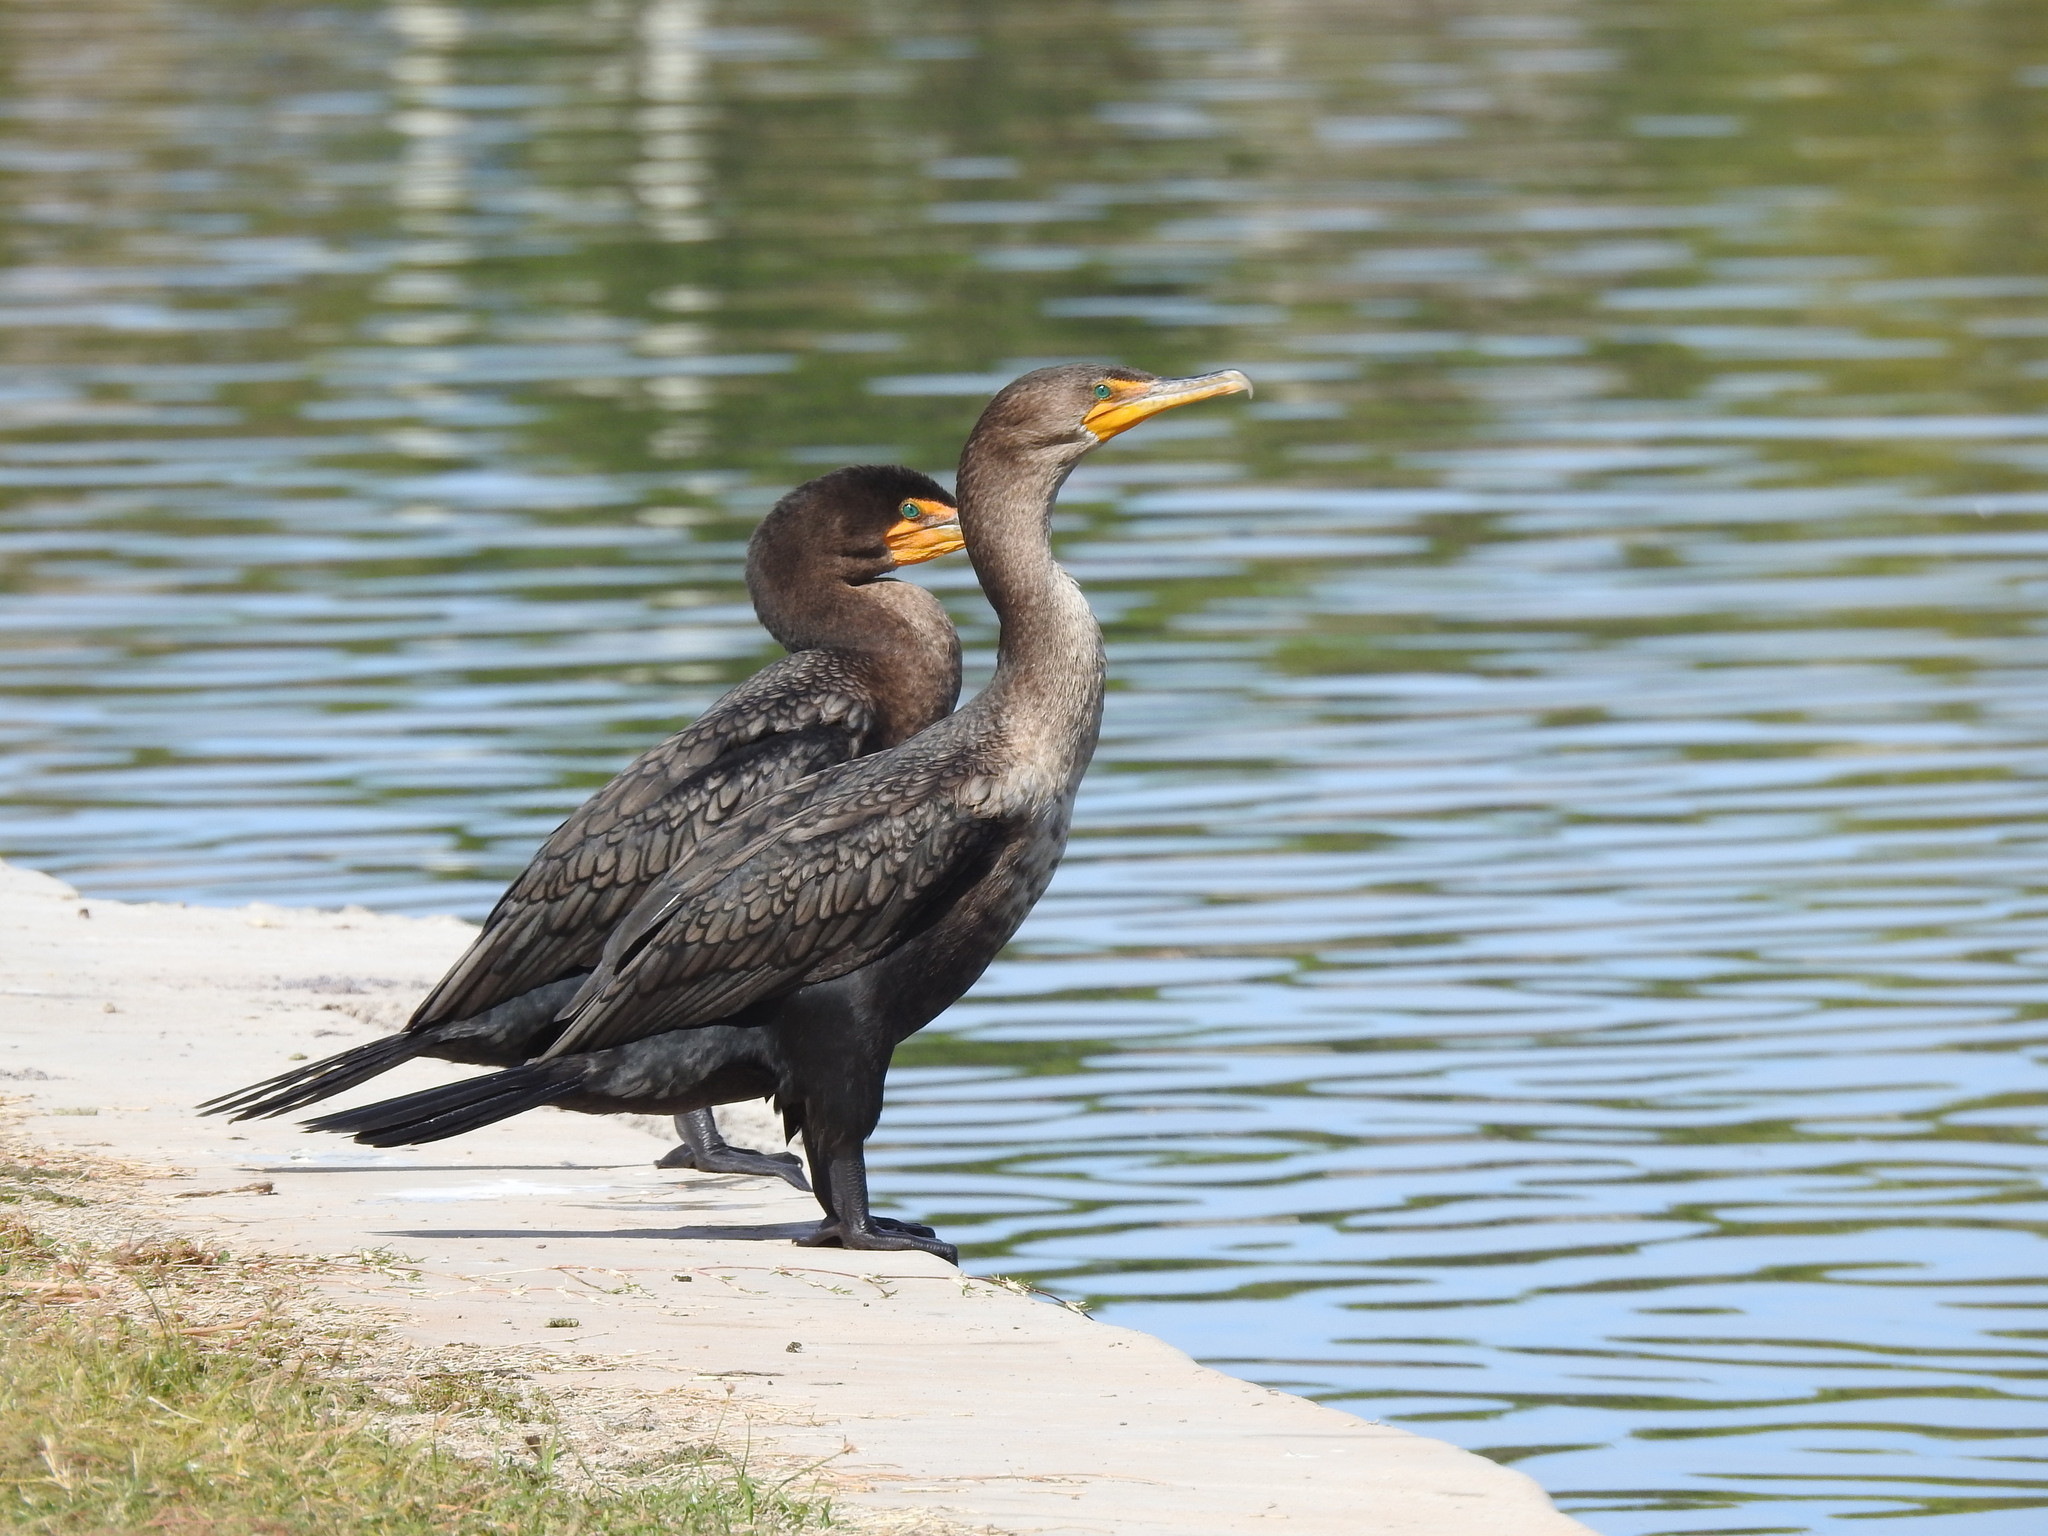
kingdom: Animalia
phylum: Chordata
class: Aves
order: Suliformes
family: Phalacrocoracidae
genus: Phalacrocorax
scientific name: Phalacrocorax auritus
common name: Double-crested cormorant
